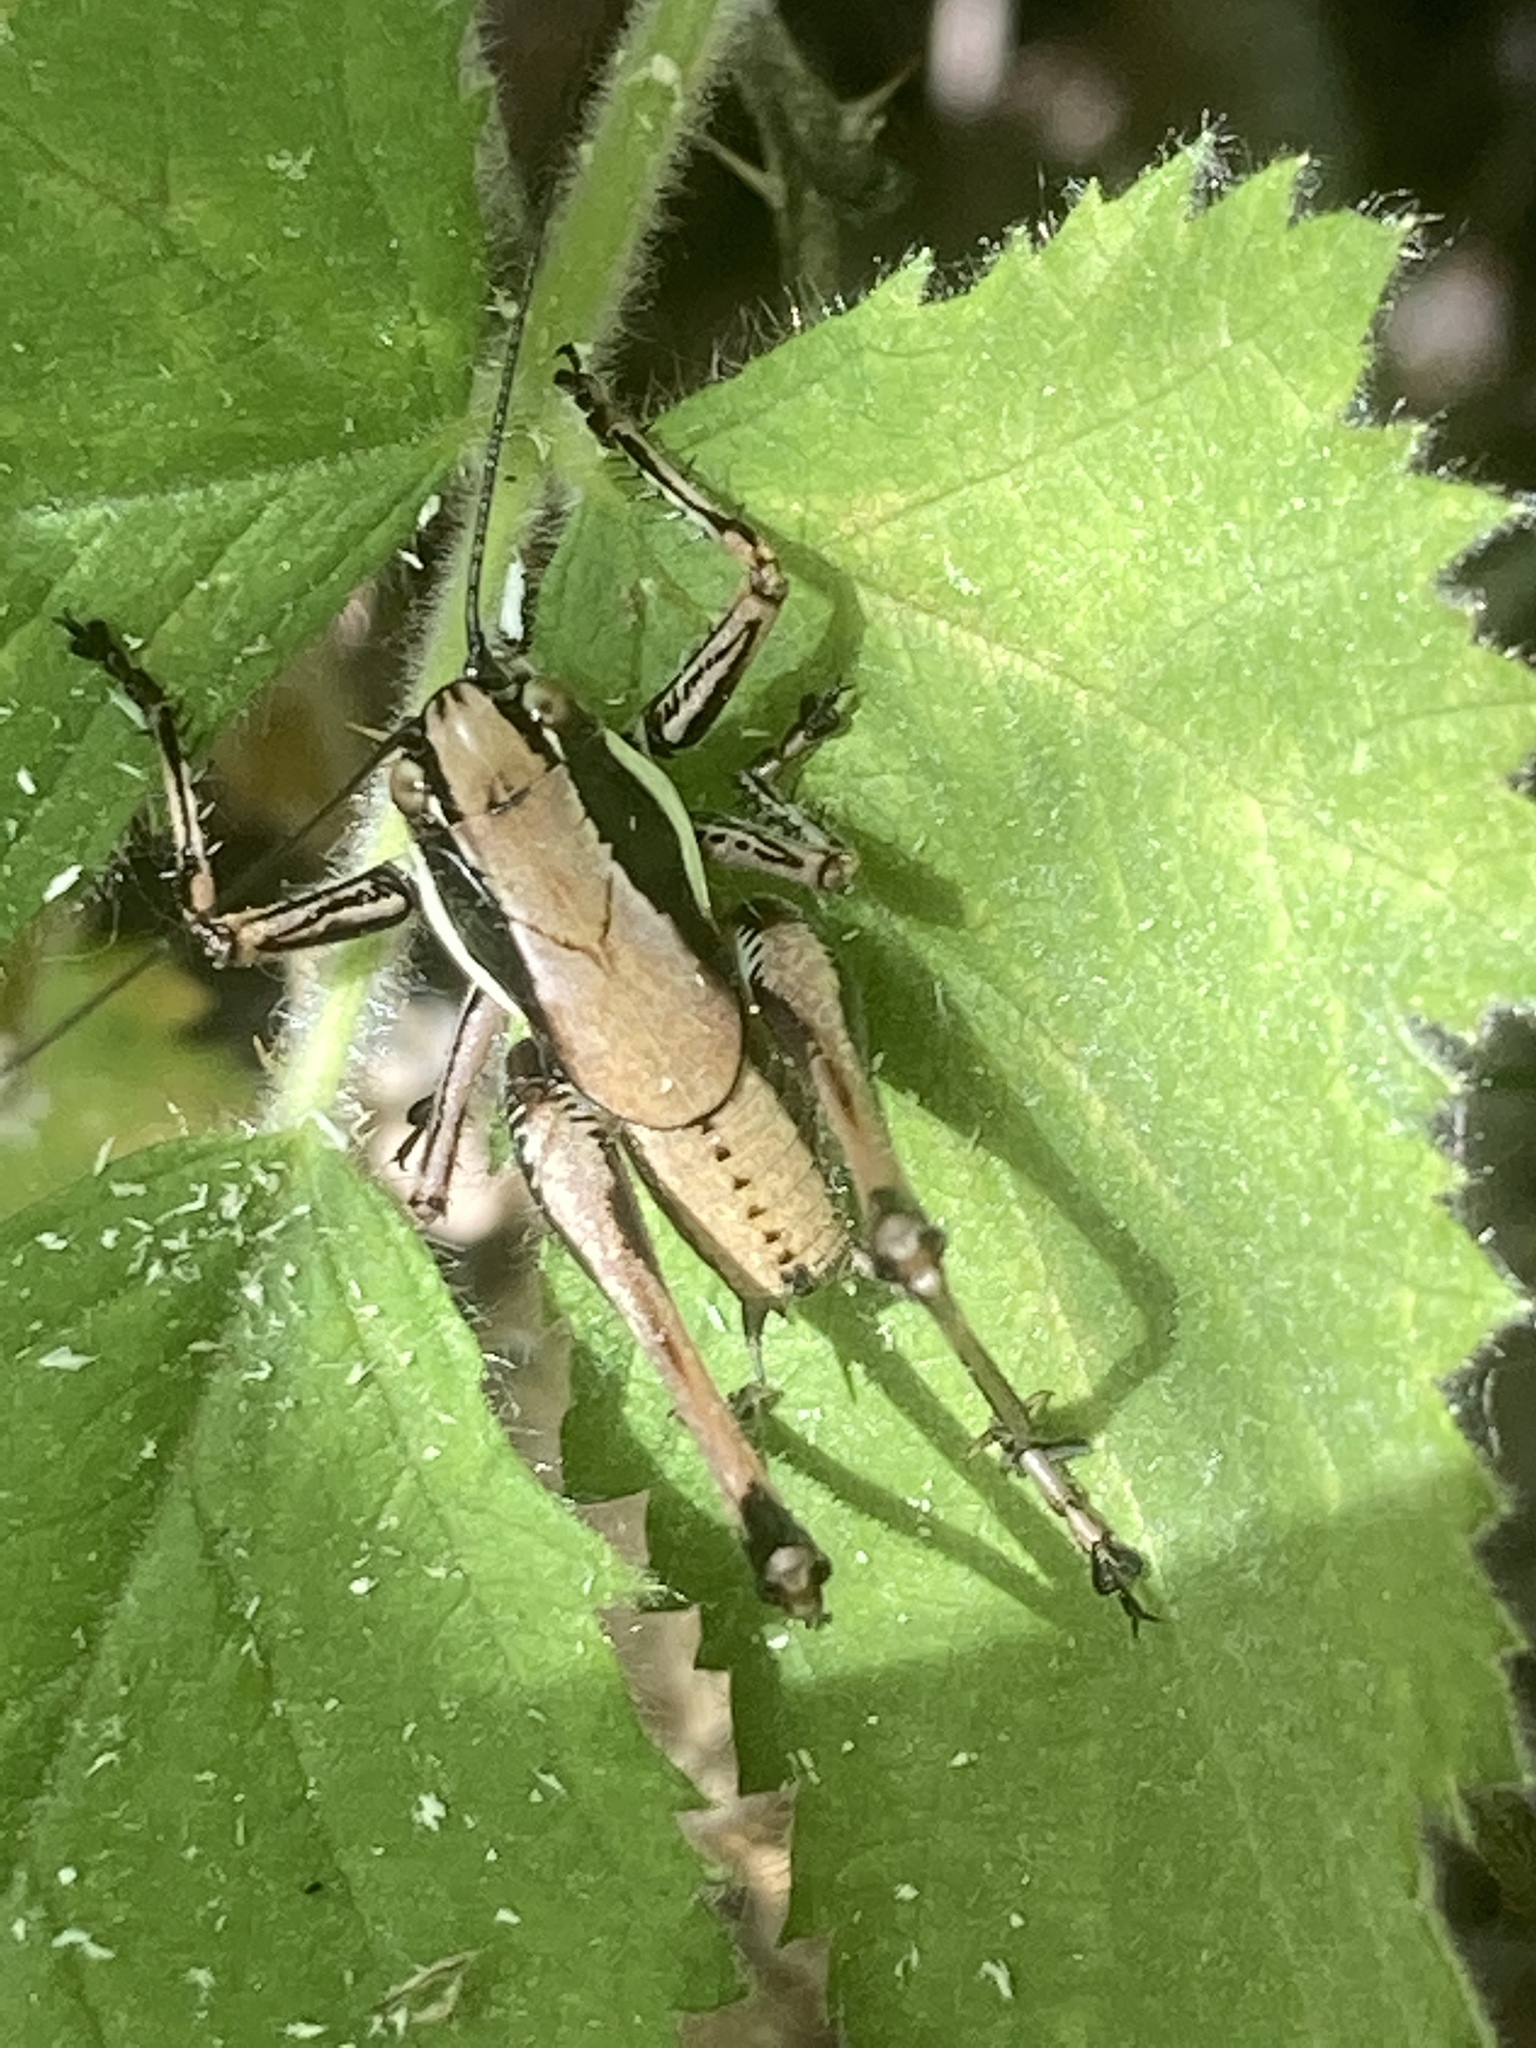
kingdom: Animalia
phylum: Arthropoda
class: Insecta
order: Orthoptera
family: Tettigoniidae
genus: Eupholidoptera
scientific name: Eupholidoptera smyrnensis
